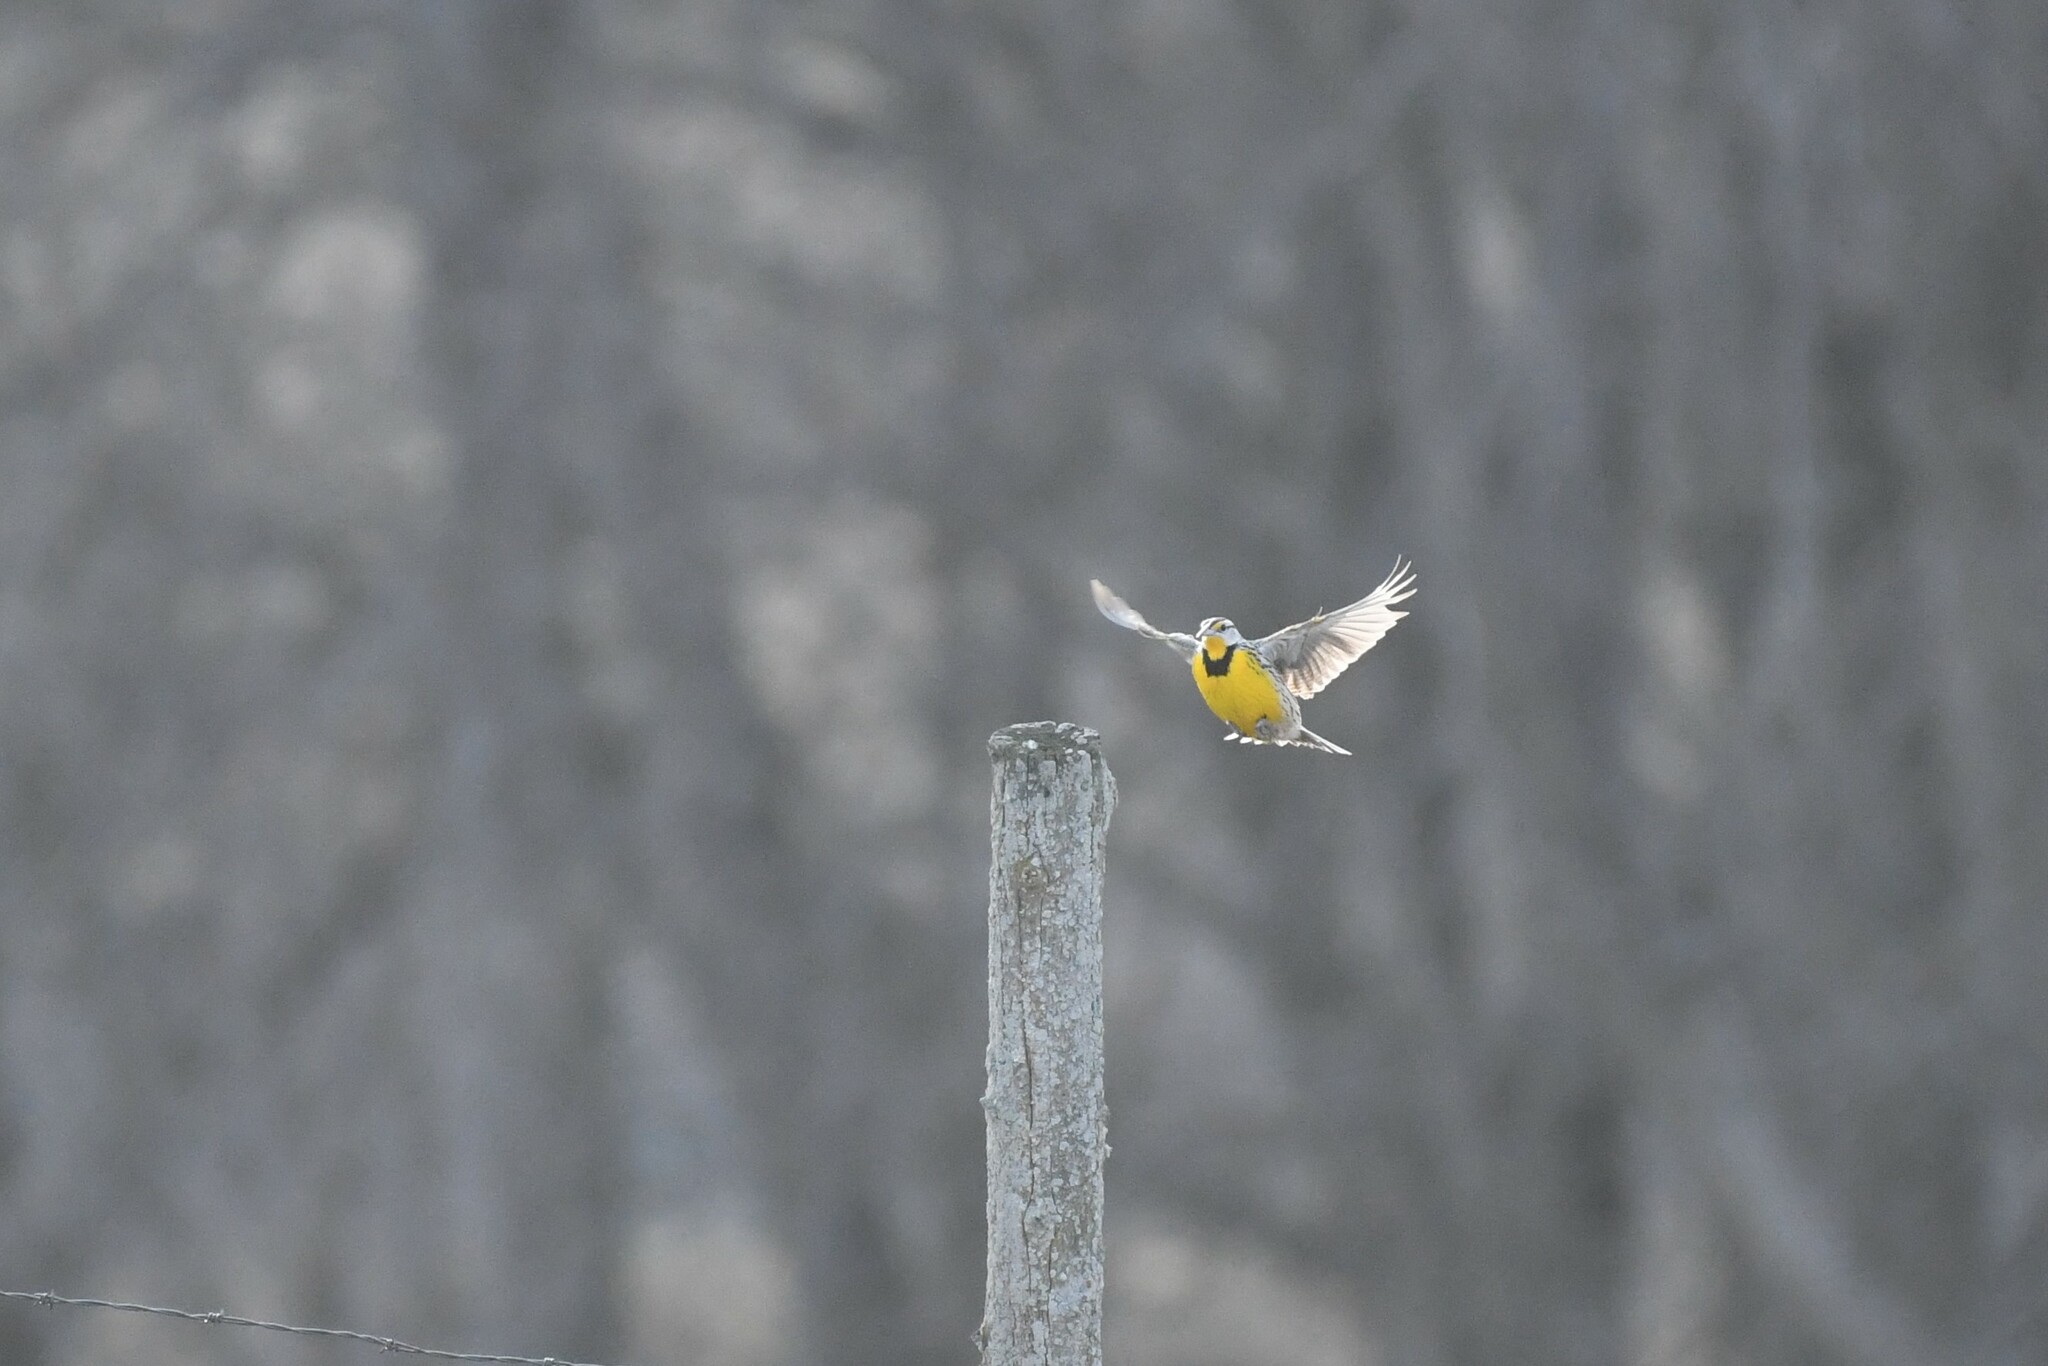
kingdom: Animalia
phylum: Chordata
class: Aves
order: Passeriformes
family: Icteridae
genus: Sturnella
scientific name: Sturnella magna
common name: Eastern meadowlark
